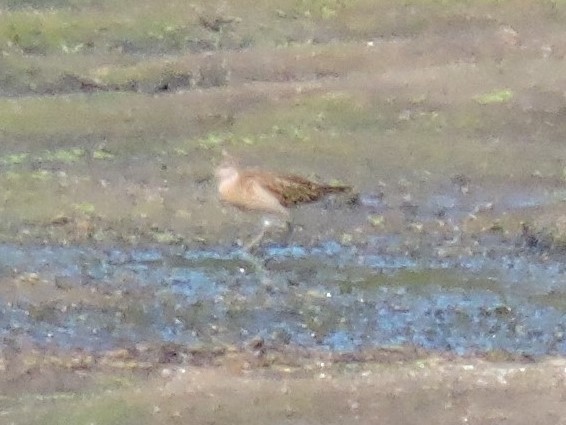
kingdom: Animalia
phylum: Chordata
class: Aves
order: Charadriiformes
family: Scolopacidae
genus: Calidris
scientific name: Calidris pugnax
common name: Ruff
